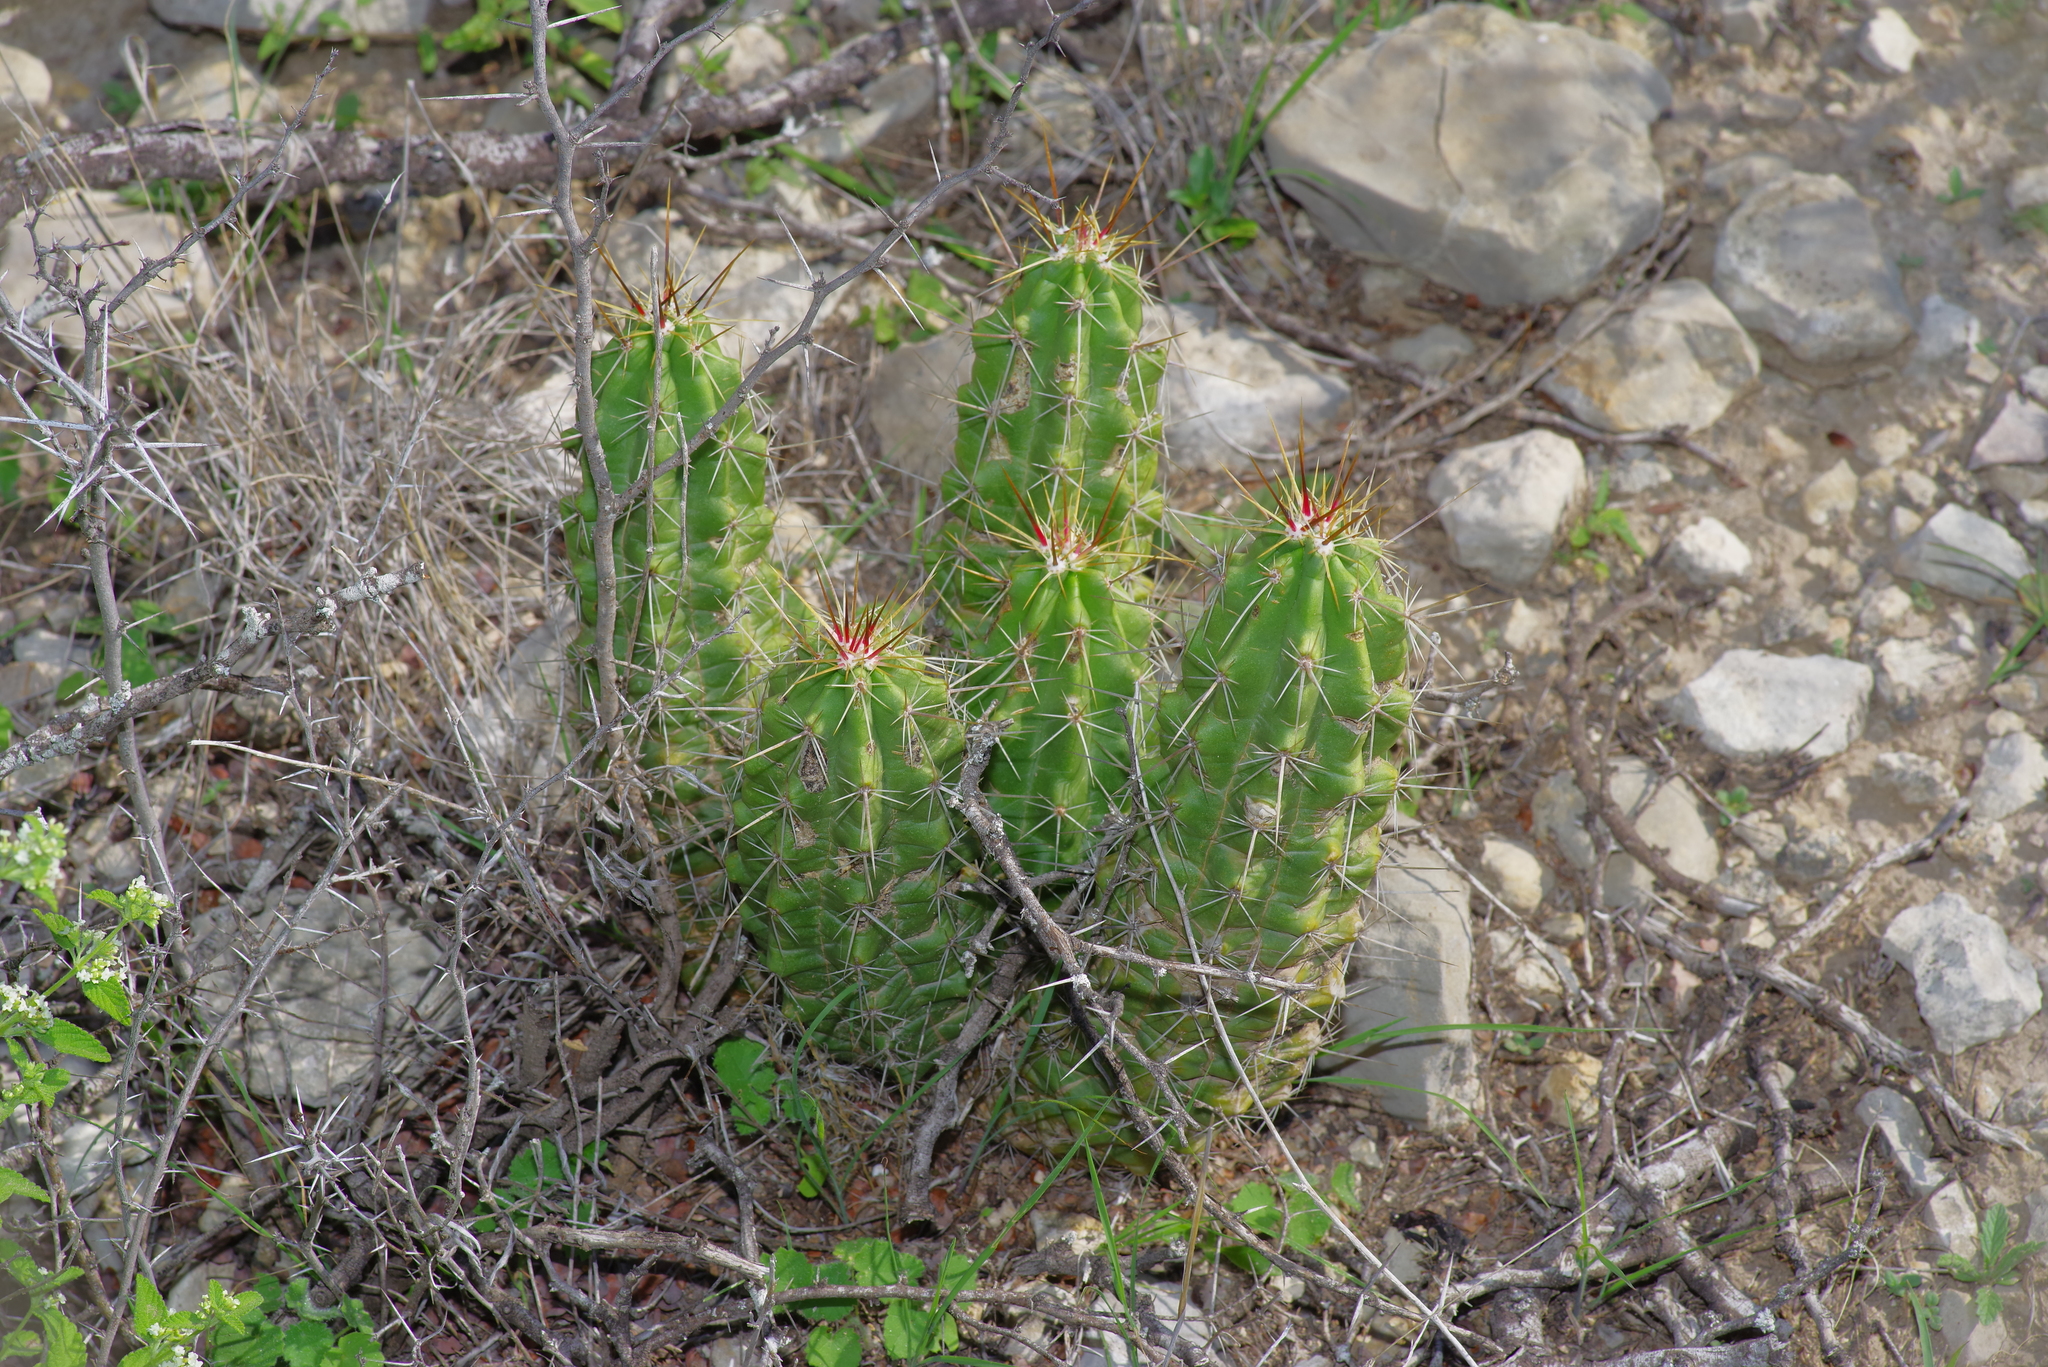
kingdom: Plantae
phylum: Tracheophyta
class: Magnoliopsida
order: Caryophyllales
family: Cactaceae
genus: Echinocereus
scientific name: Echinocereus enneacanthus
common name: Pitaya
